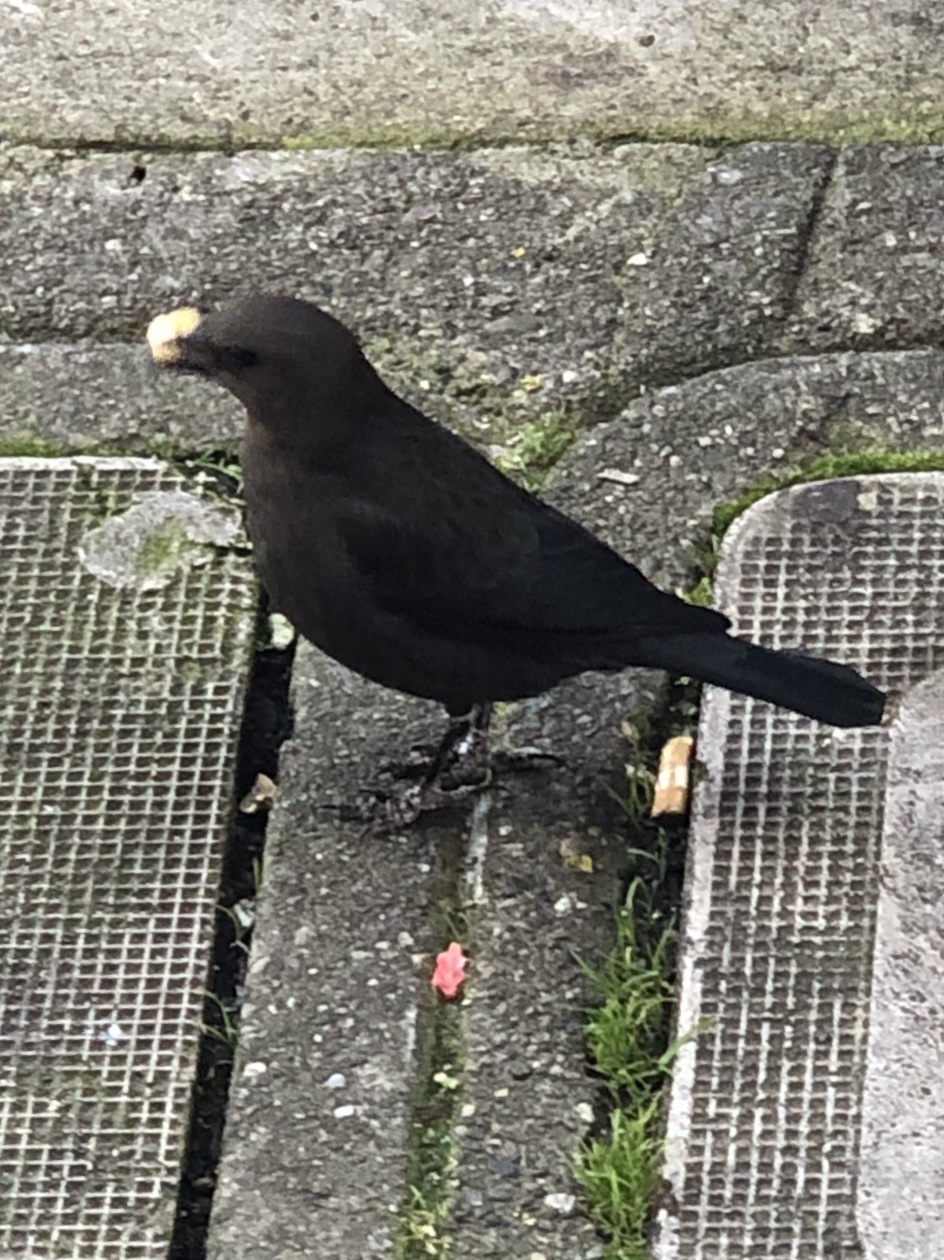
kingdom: Animalia
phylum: Chordata
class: Aves
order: Passeriformes
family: Icteridae
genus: Euphagus
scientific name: Euphagus cyanocephalus
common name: Brewer's blackbird
